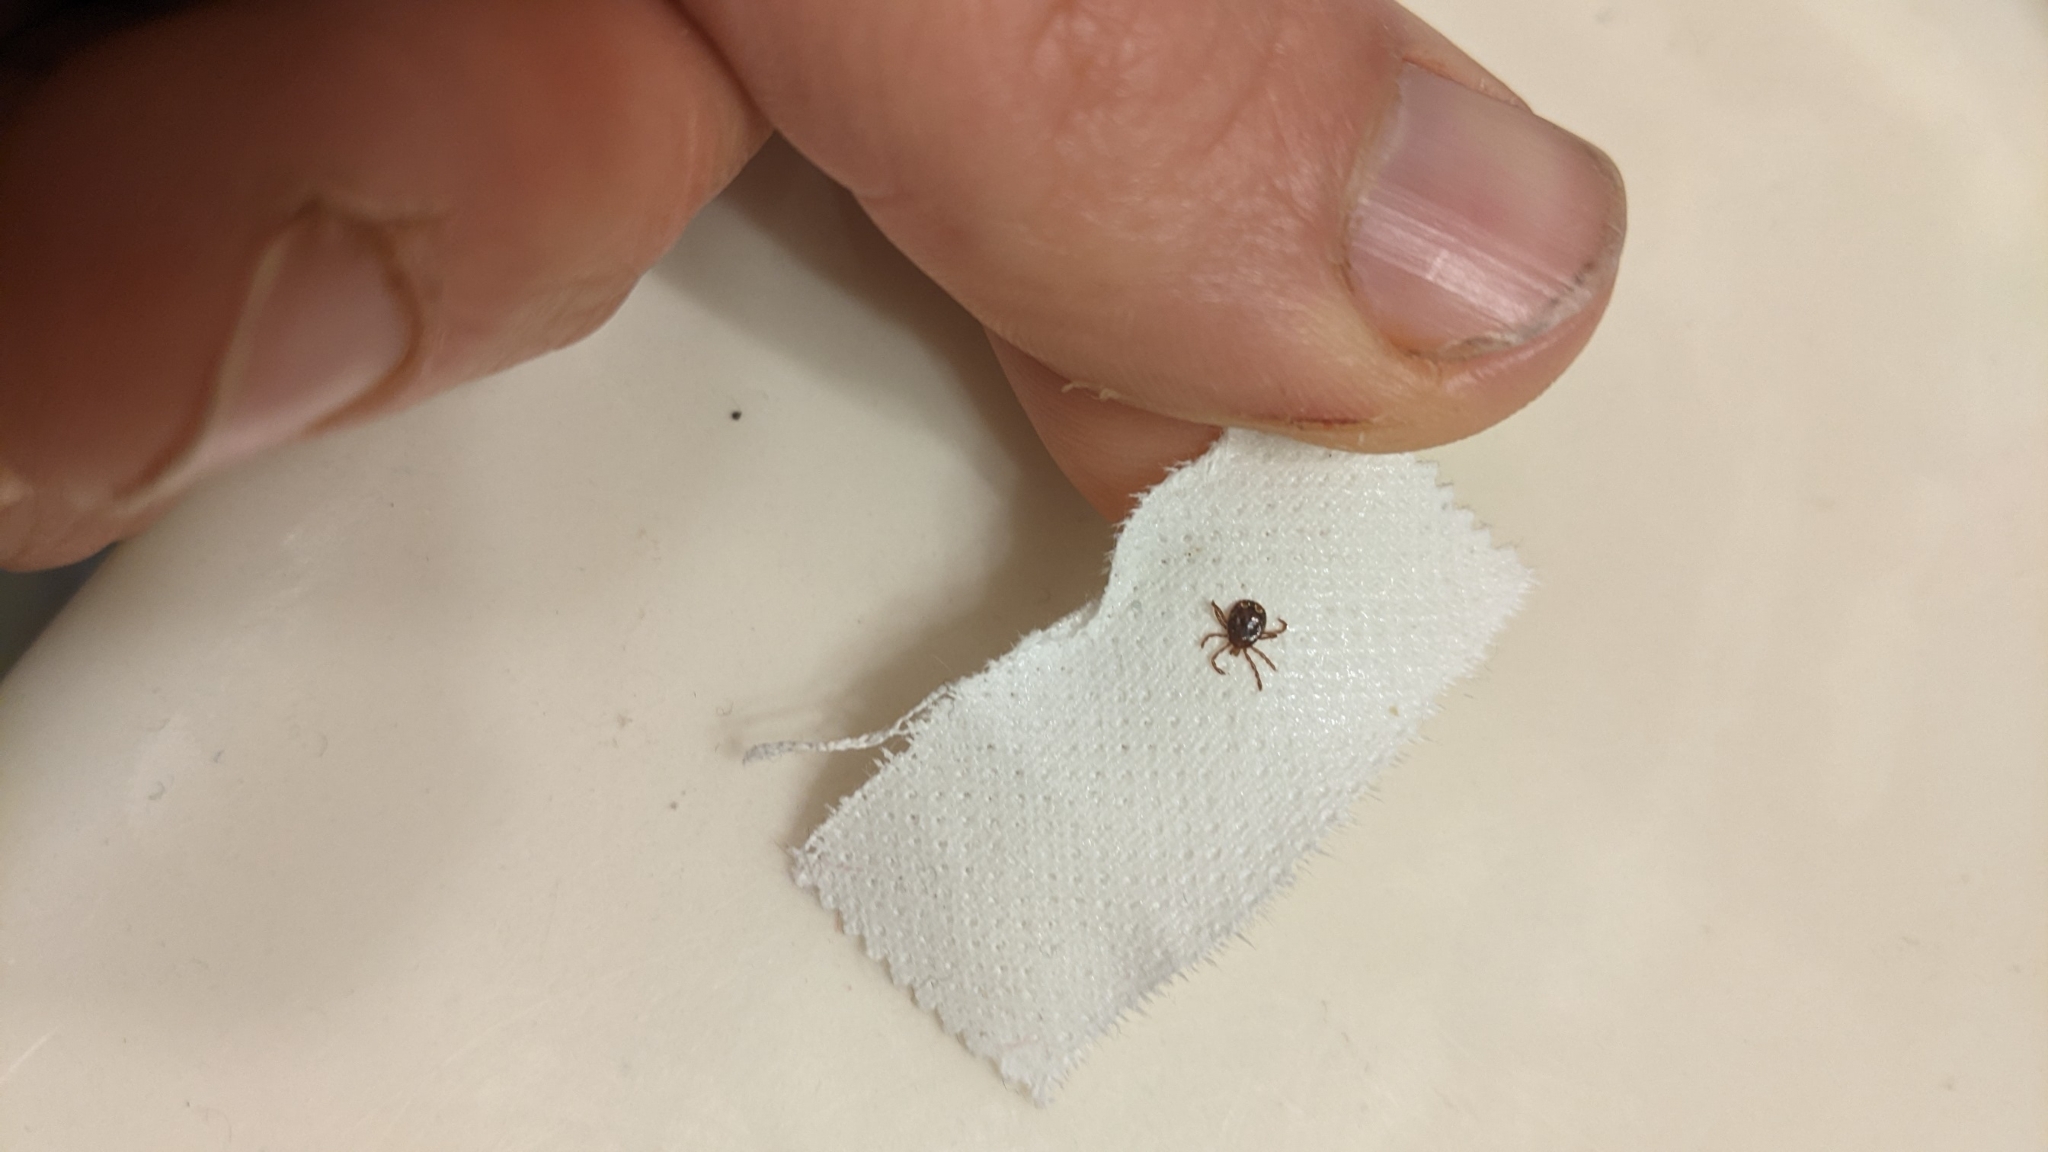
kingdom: Animalia
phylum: Arthropoda
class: Arachnida
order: Ixodida
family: Ixodidae
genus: Amblyomma
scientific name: Amblyomma americanum
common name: Lone star tick
